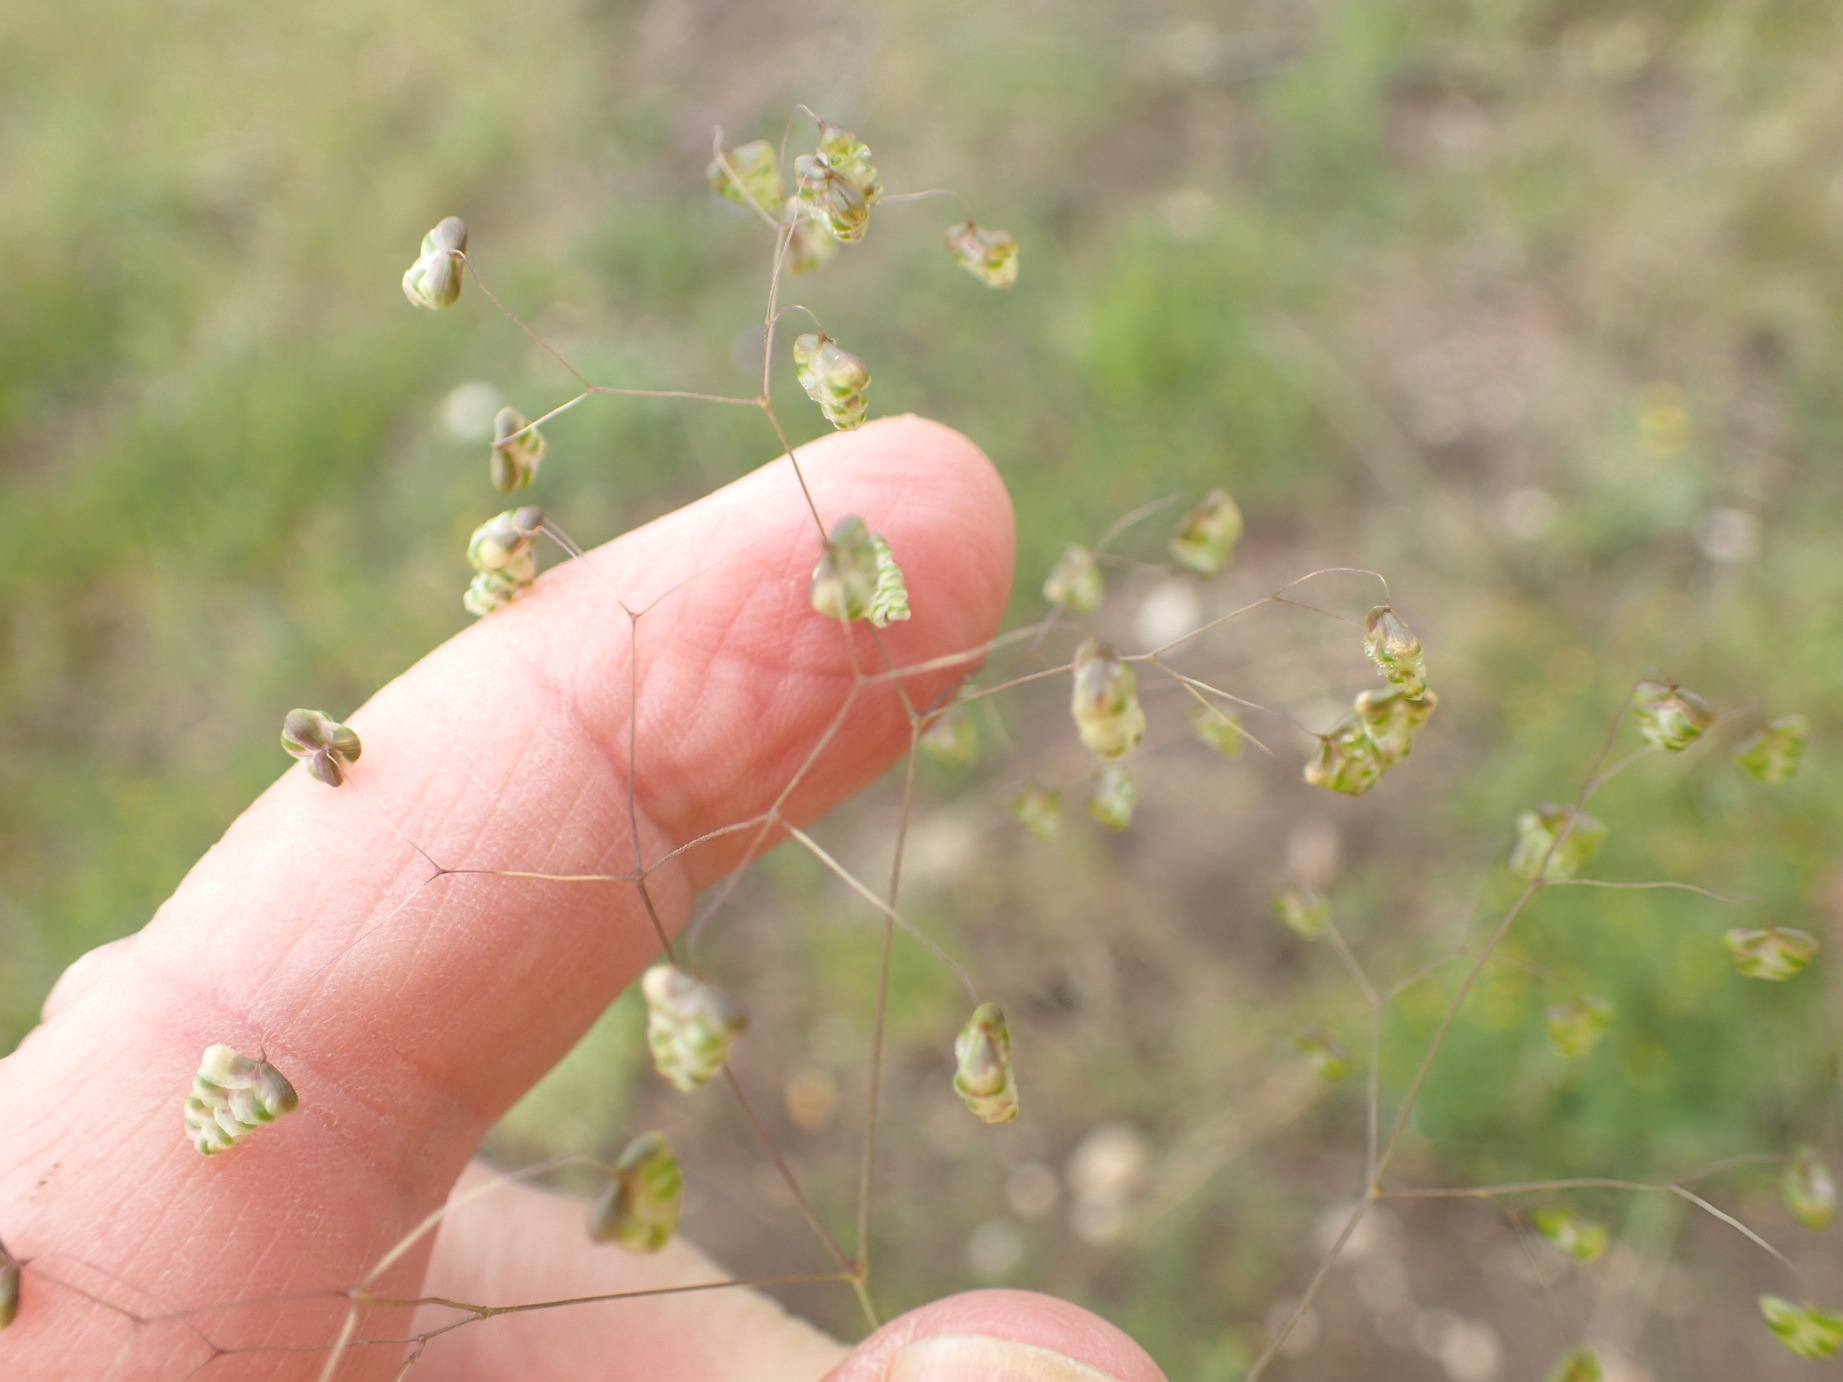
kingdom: Plantae
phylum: Tracheophyta
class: Liliopsida
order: Poales
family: Poaceae
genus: Briza
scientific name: Briza minor
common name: Lesser quaking-grass
